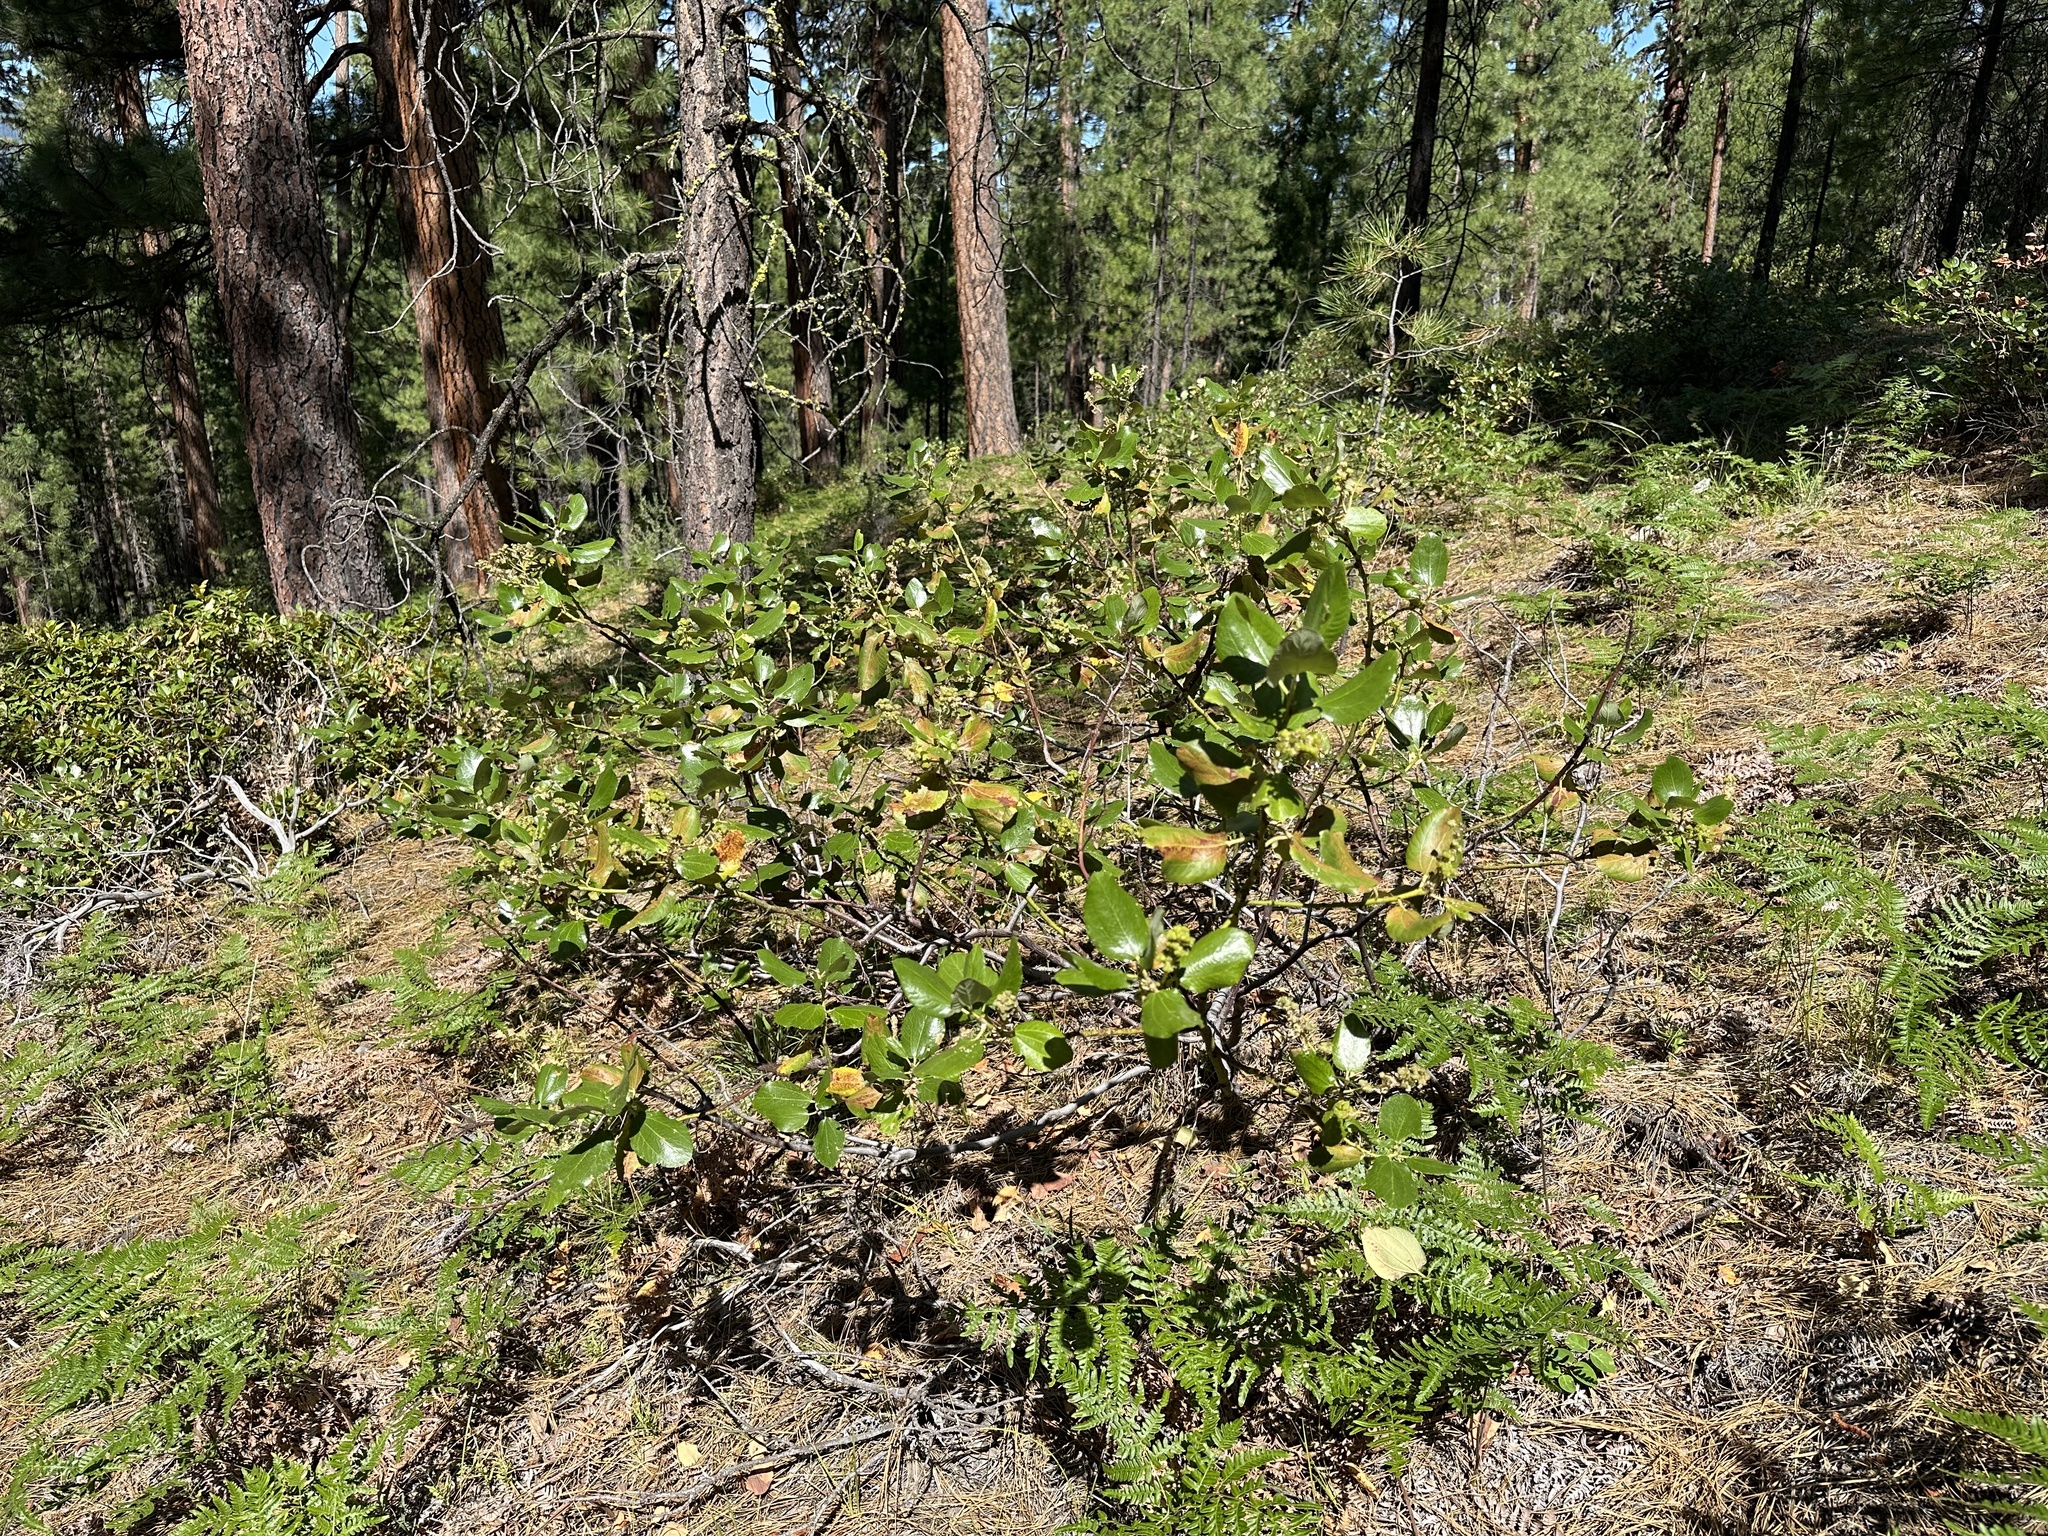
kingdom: Plantae
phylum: Tracheophyta
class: Magnoliopsida
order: Rosales
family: Rhamnaceae
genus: Ceanothus
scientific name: Ceanothus velutinus
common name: Snowbrush
